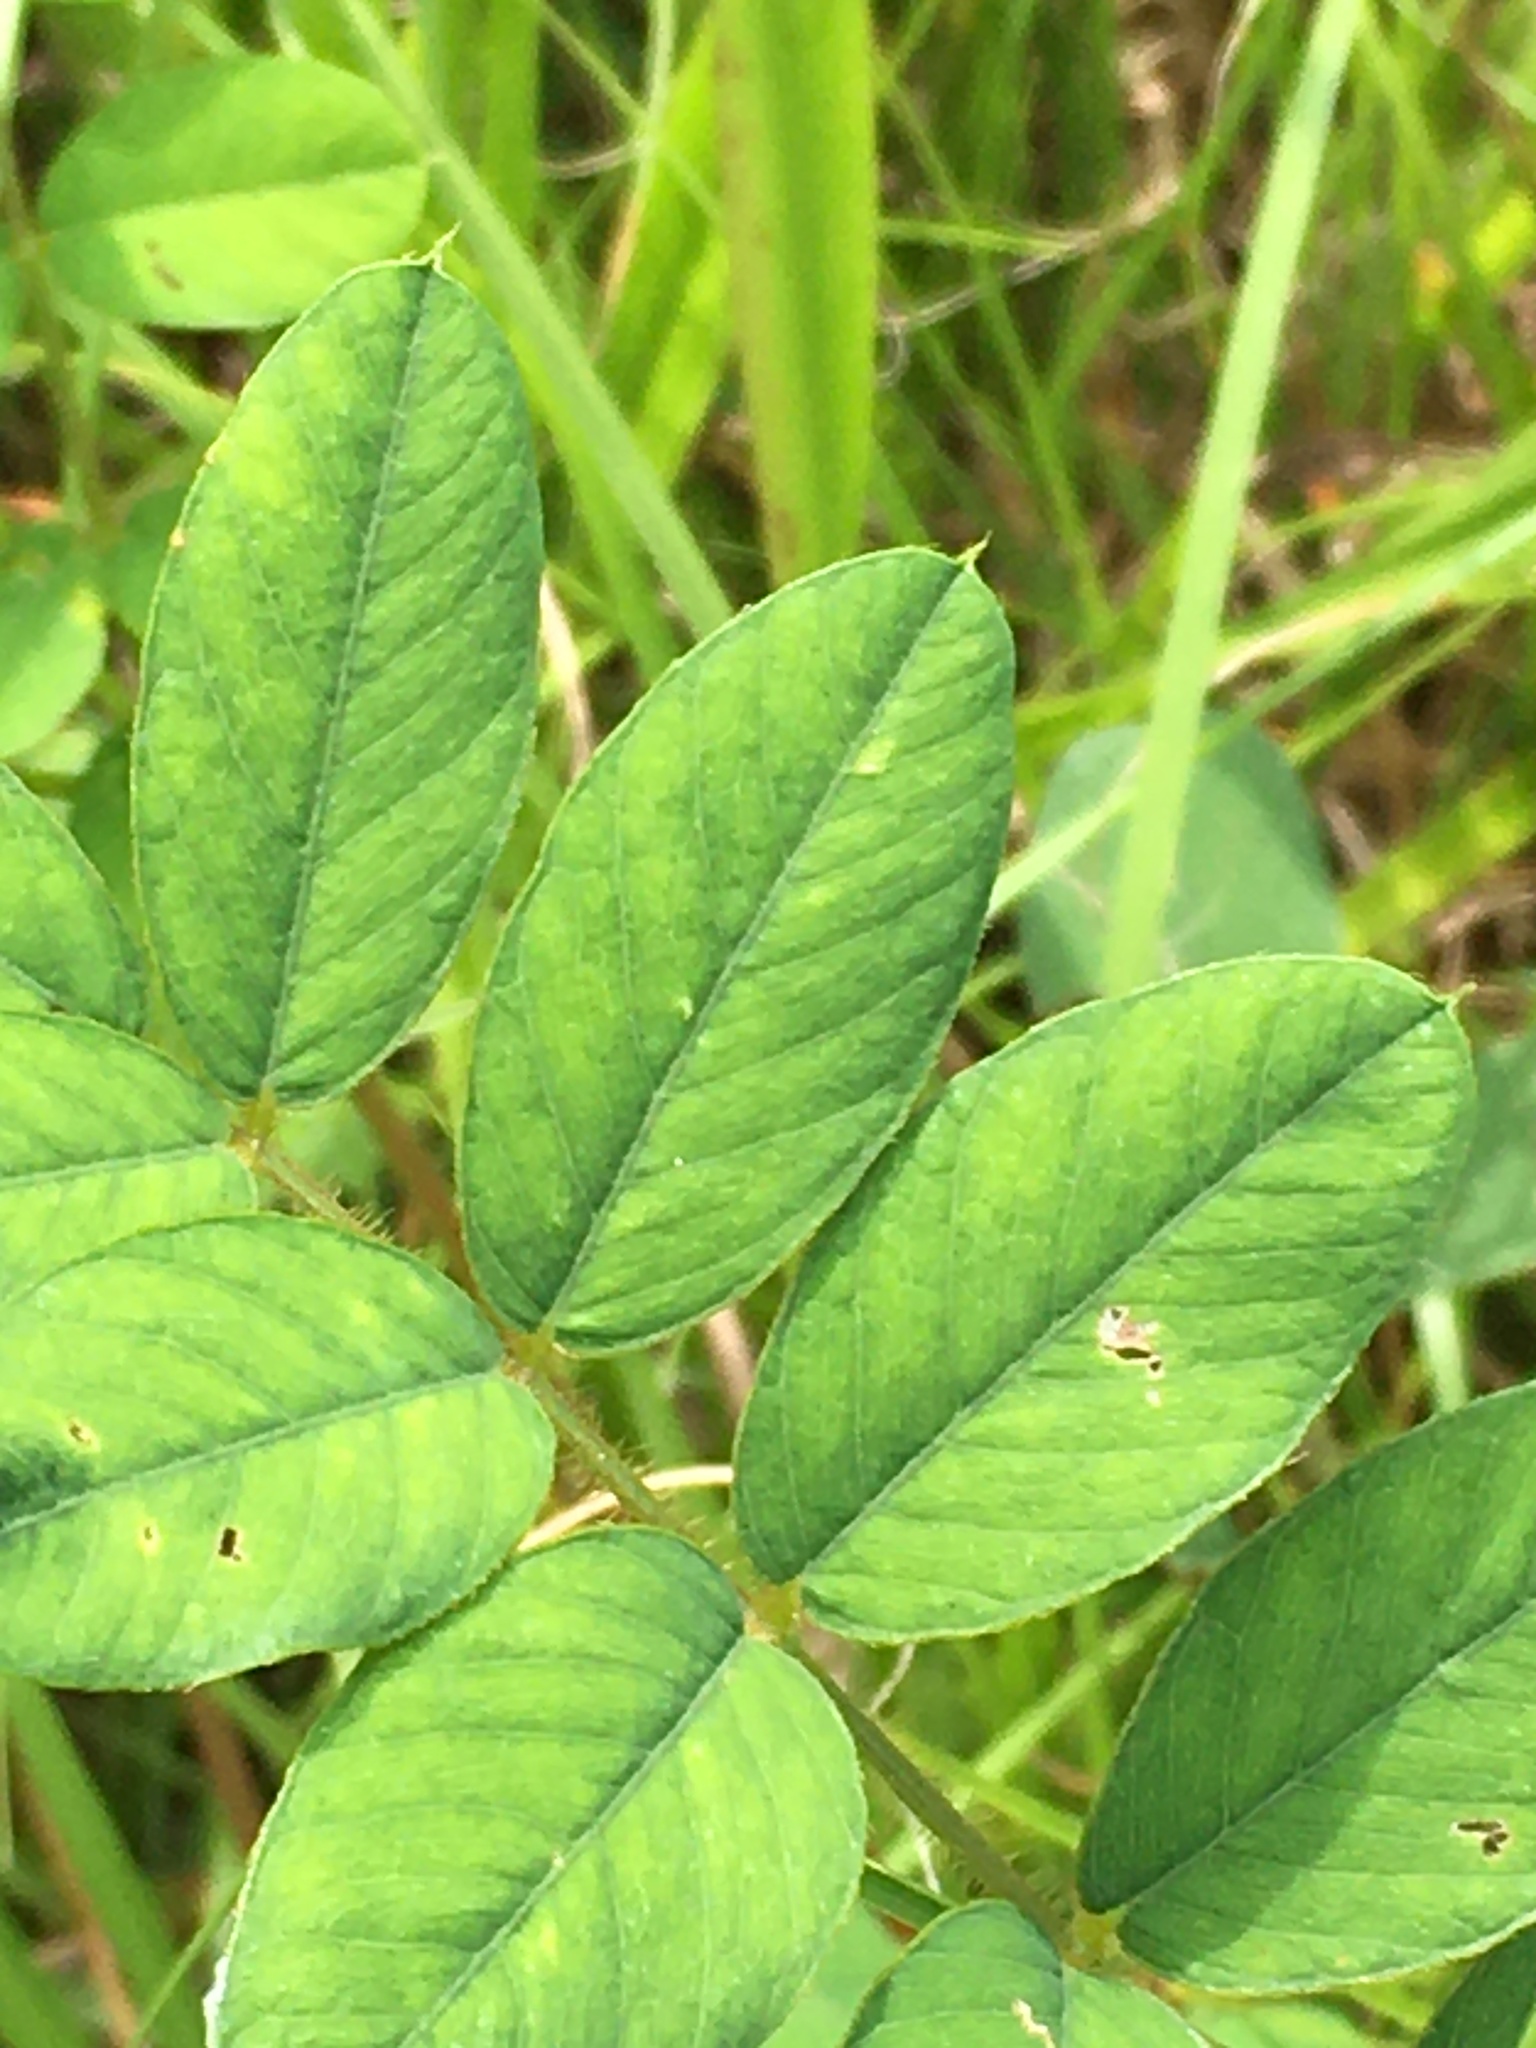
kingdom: Plantae
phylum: Tracheophyta
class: Magnoliopsida
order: Fabales
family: Fabaceae
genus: Tephrosia
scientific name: Tephrosia spicata
